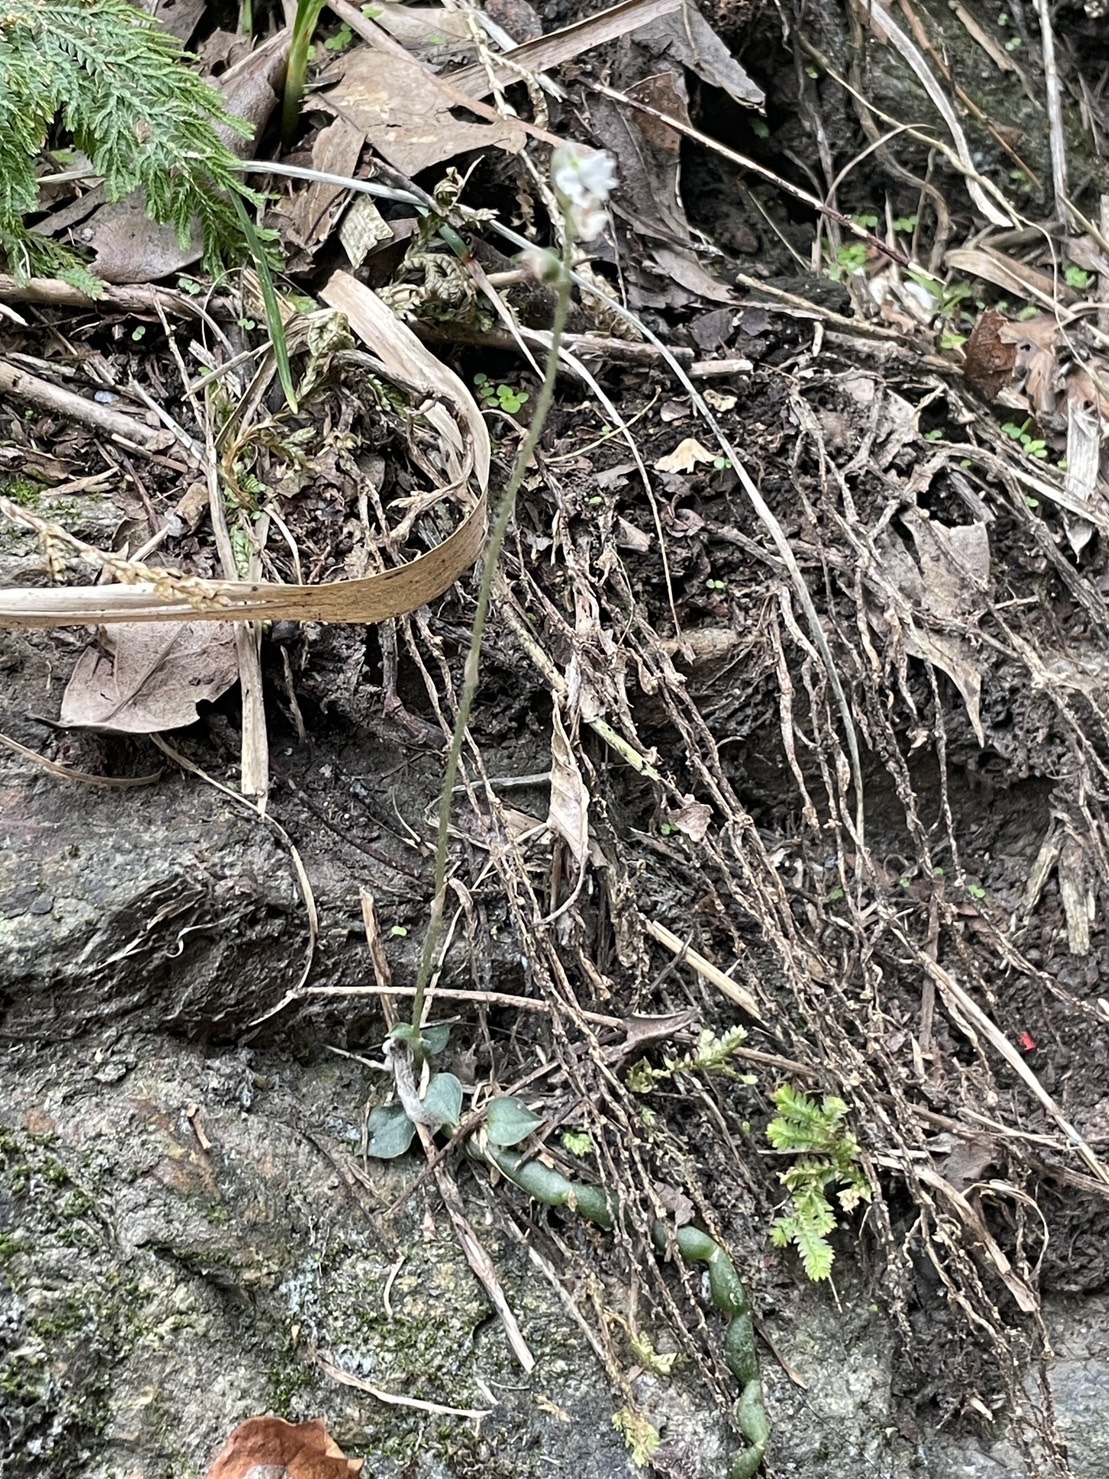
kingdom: Plantae
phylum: Tracheophyta
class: Liliopsida
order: Asparagales
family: Orchidaceae
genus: Cheirostylis
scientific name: Cheirostylis chinensis
